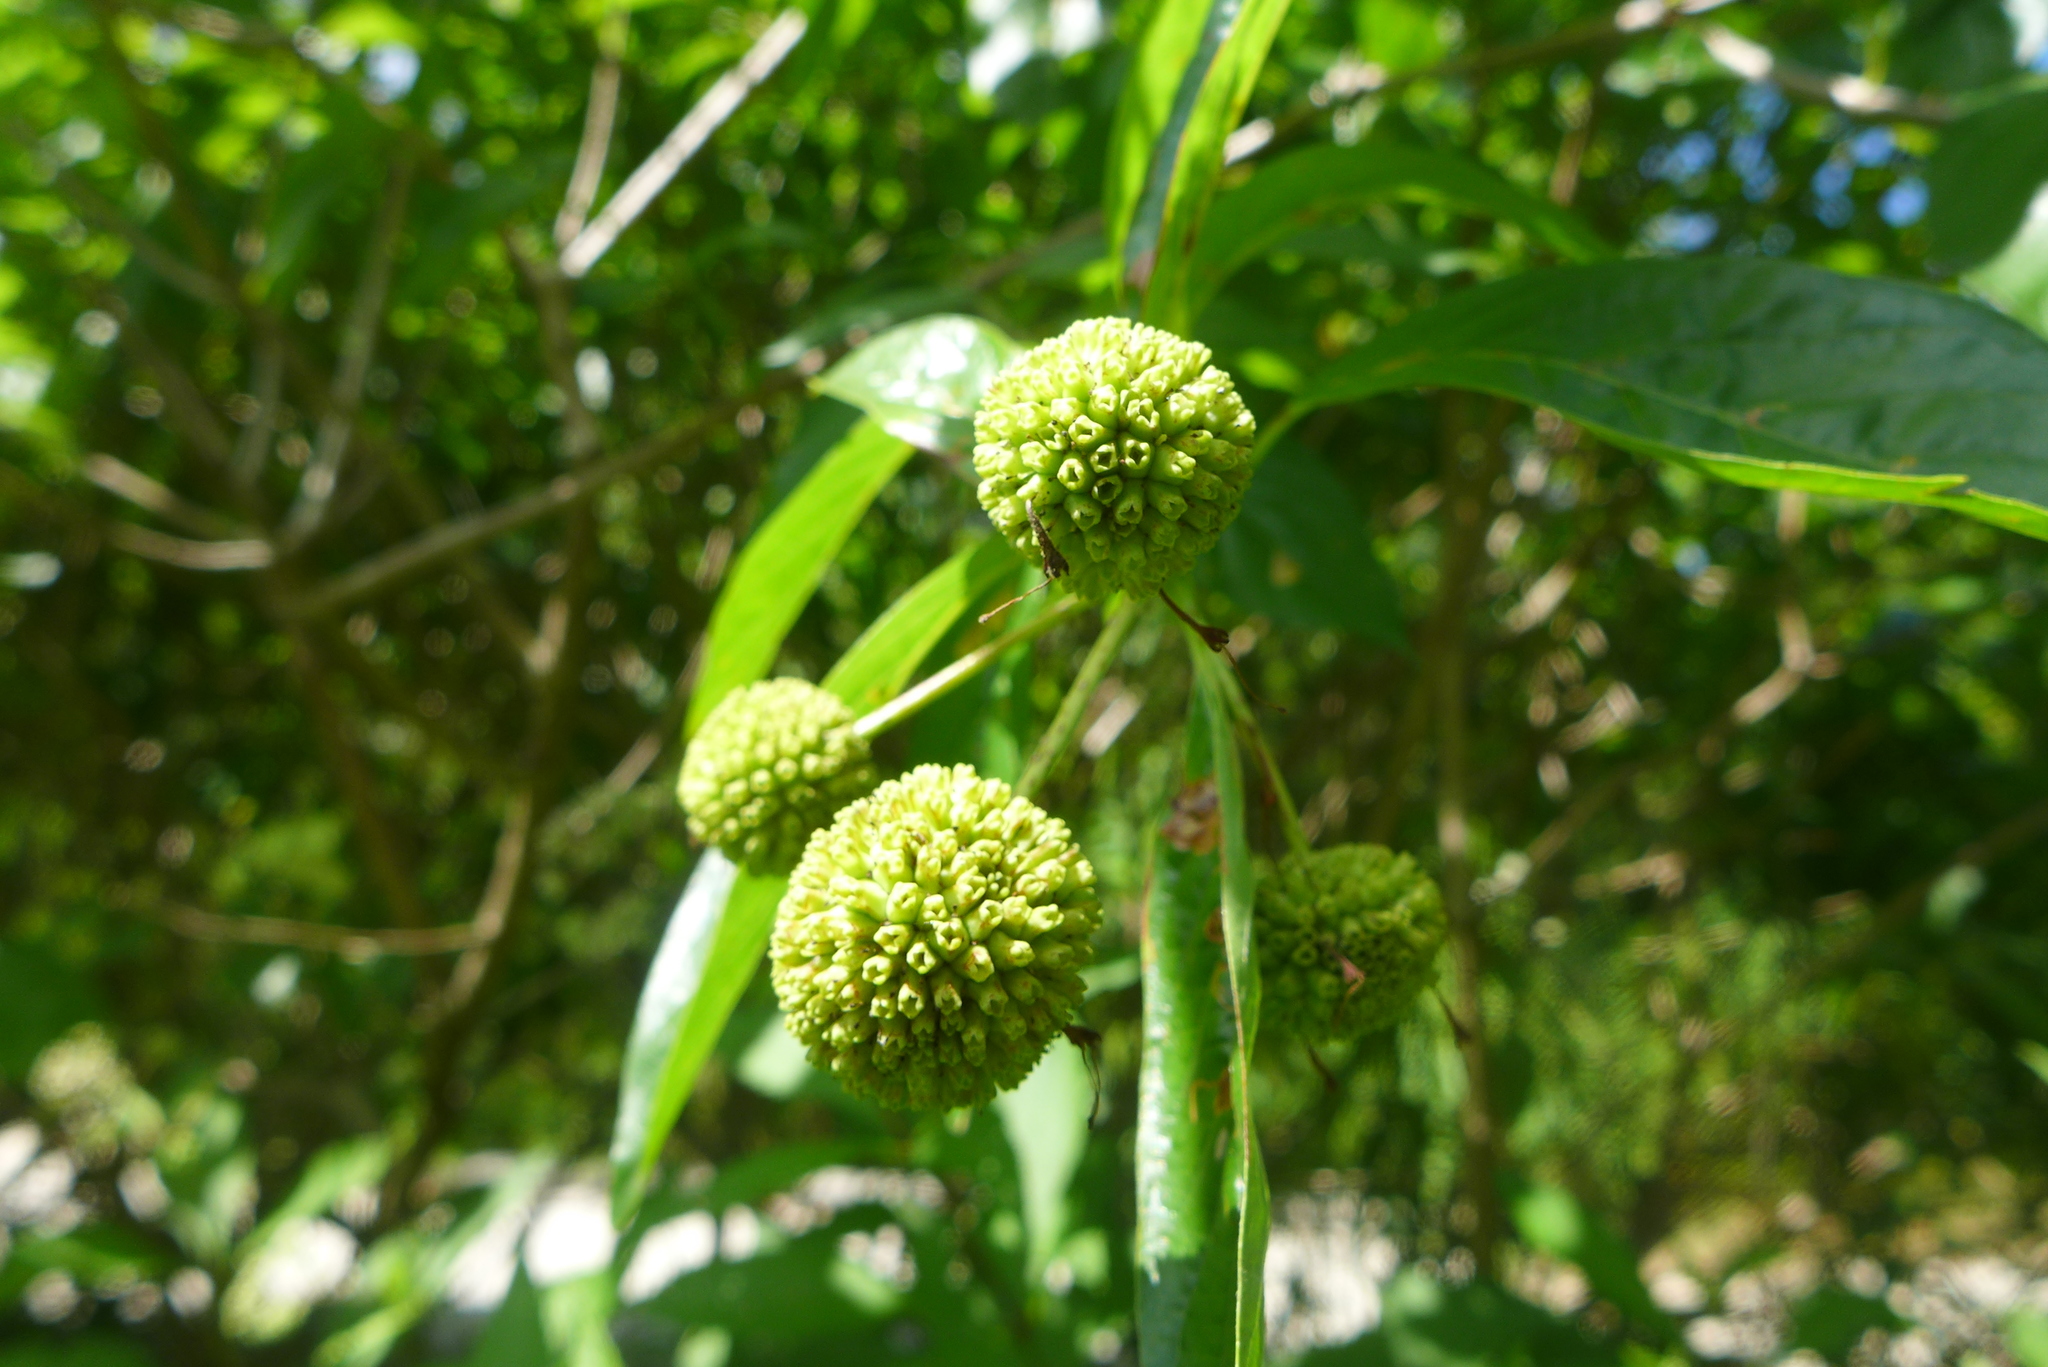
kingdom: Plantae
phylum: Tracheophyta
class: Magnoliopsida
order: Gentianales
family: Rubiaceae
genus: Cephalanthus
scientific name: Cephalanthus occidentalis
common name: Button-willow
